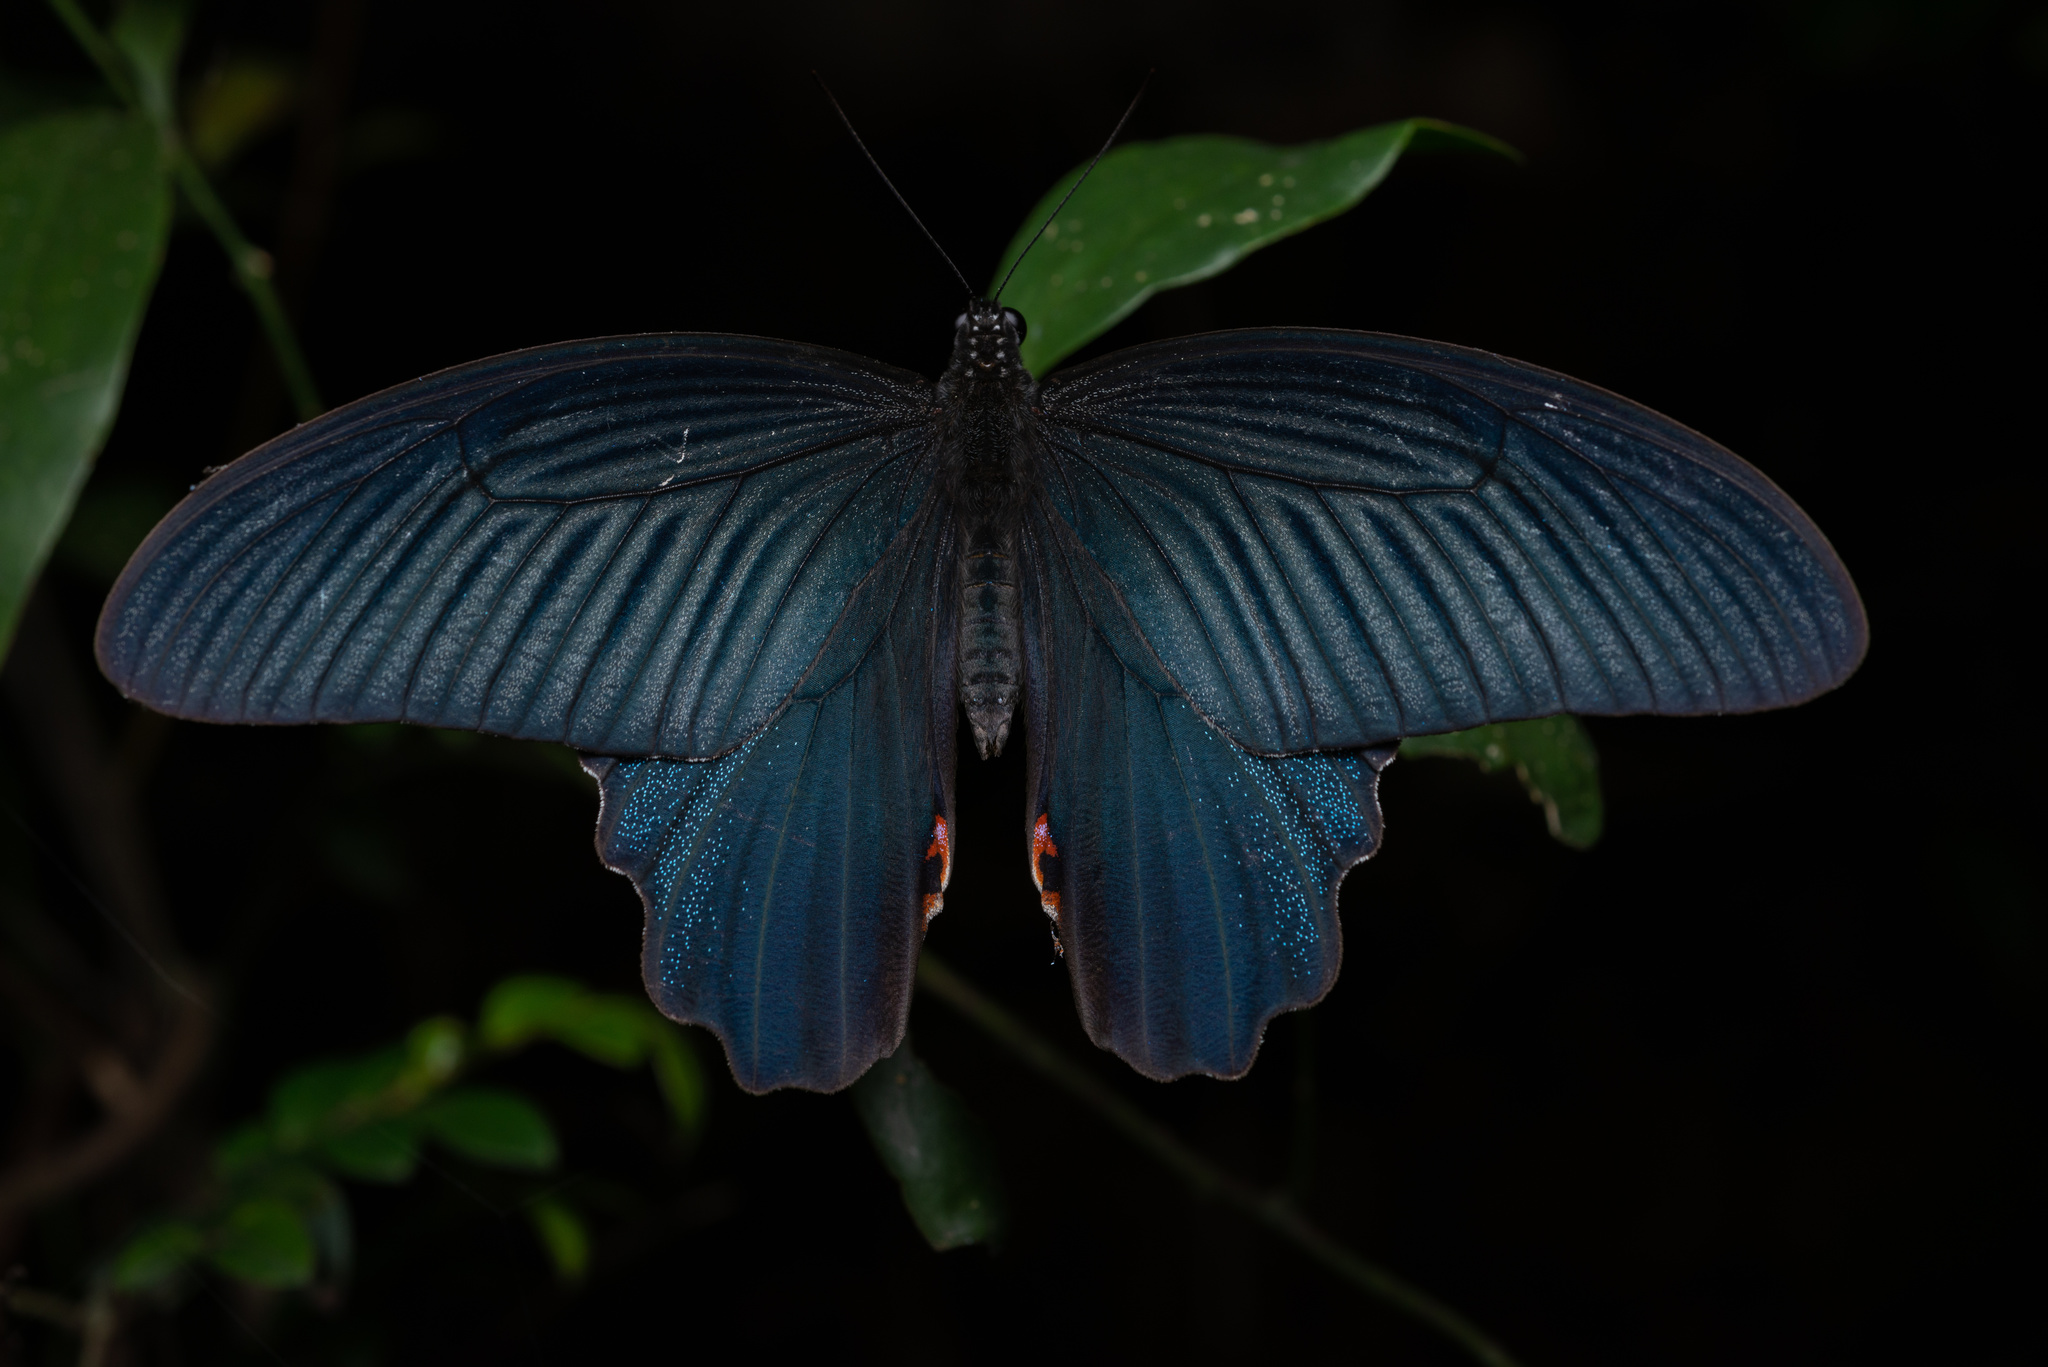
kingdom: Animalia
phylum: Arthropoda
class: Insecta
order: Lepidoptera
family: Papilionidae
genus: Papilio
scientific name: Papilio protenor
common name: Spangle
